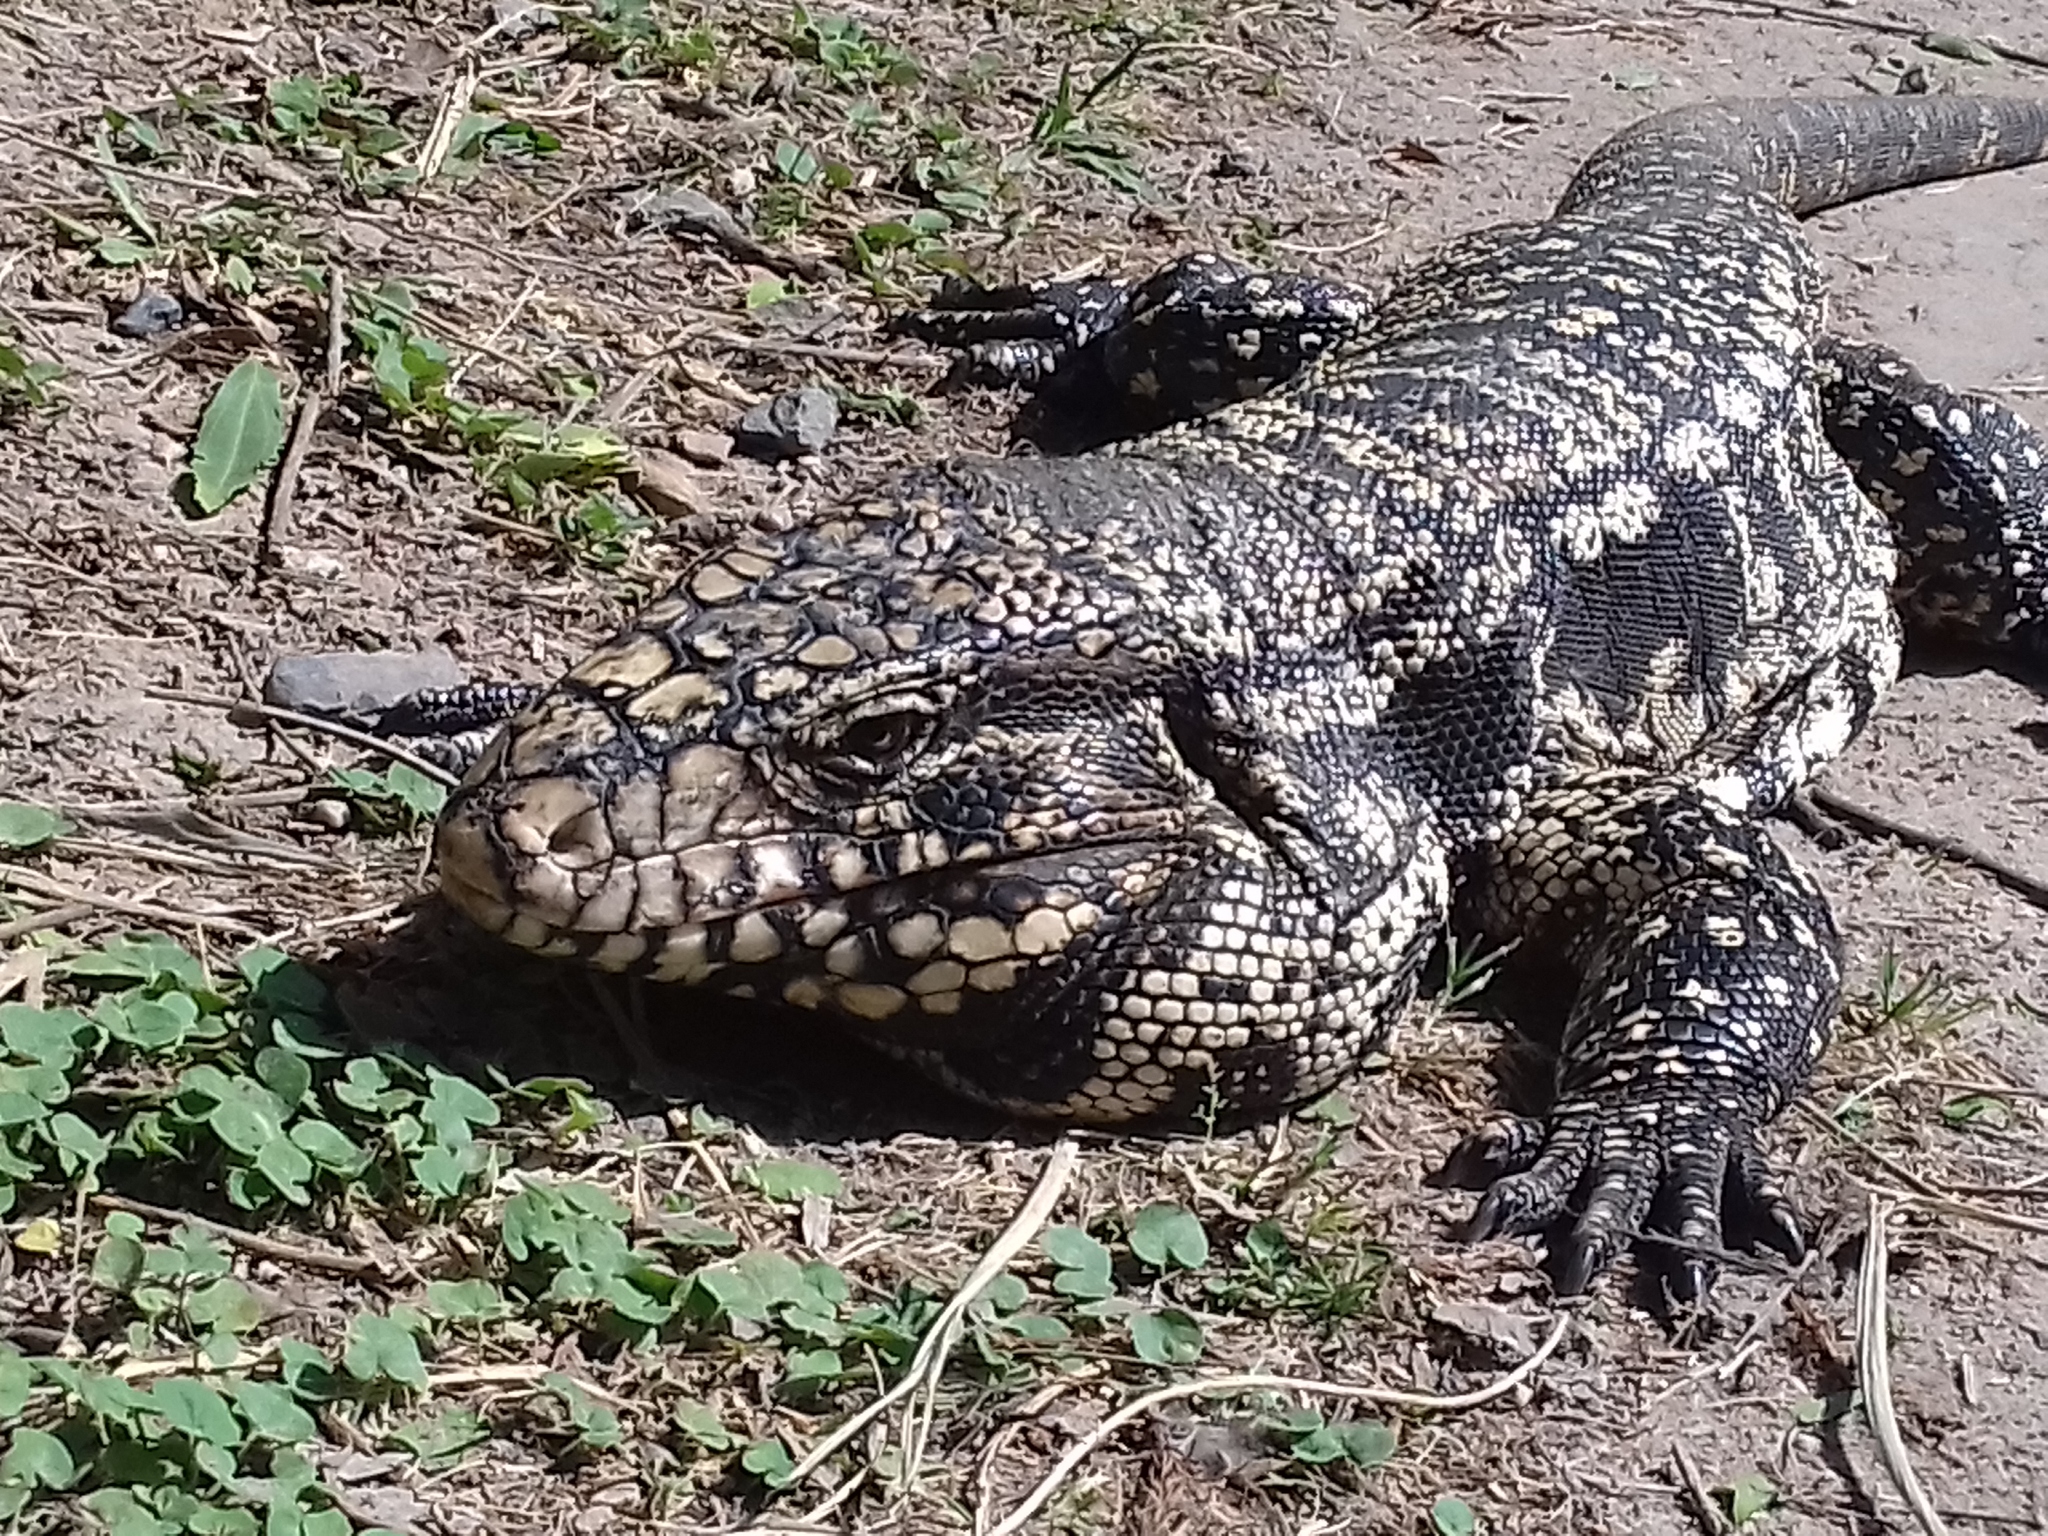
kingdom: Animalia
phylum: Chordata
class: Squamata
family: Teiidae
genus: Salvator
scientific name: Salvator merianae
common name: Argentine black and white tegu
